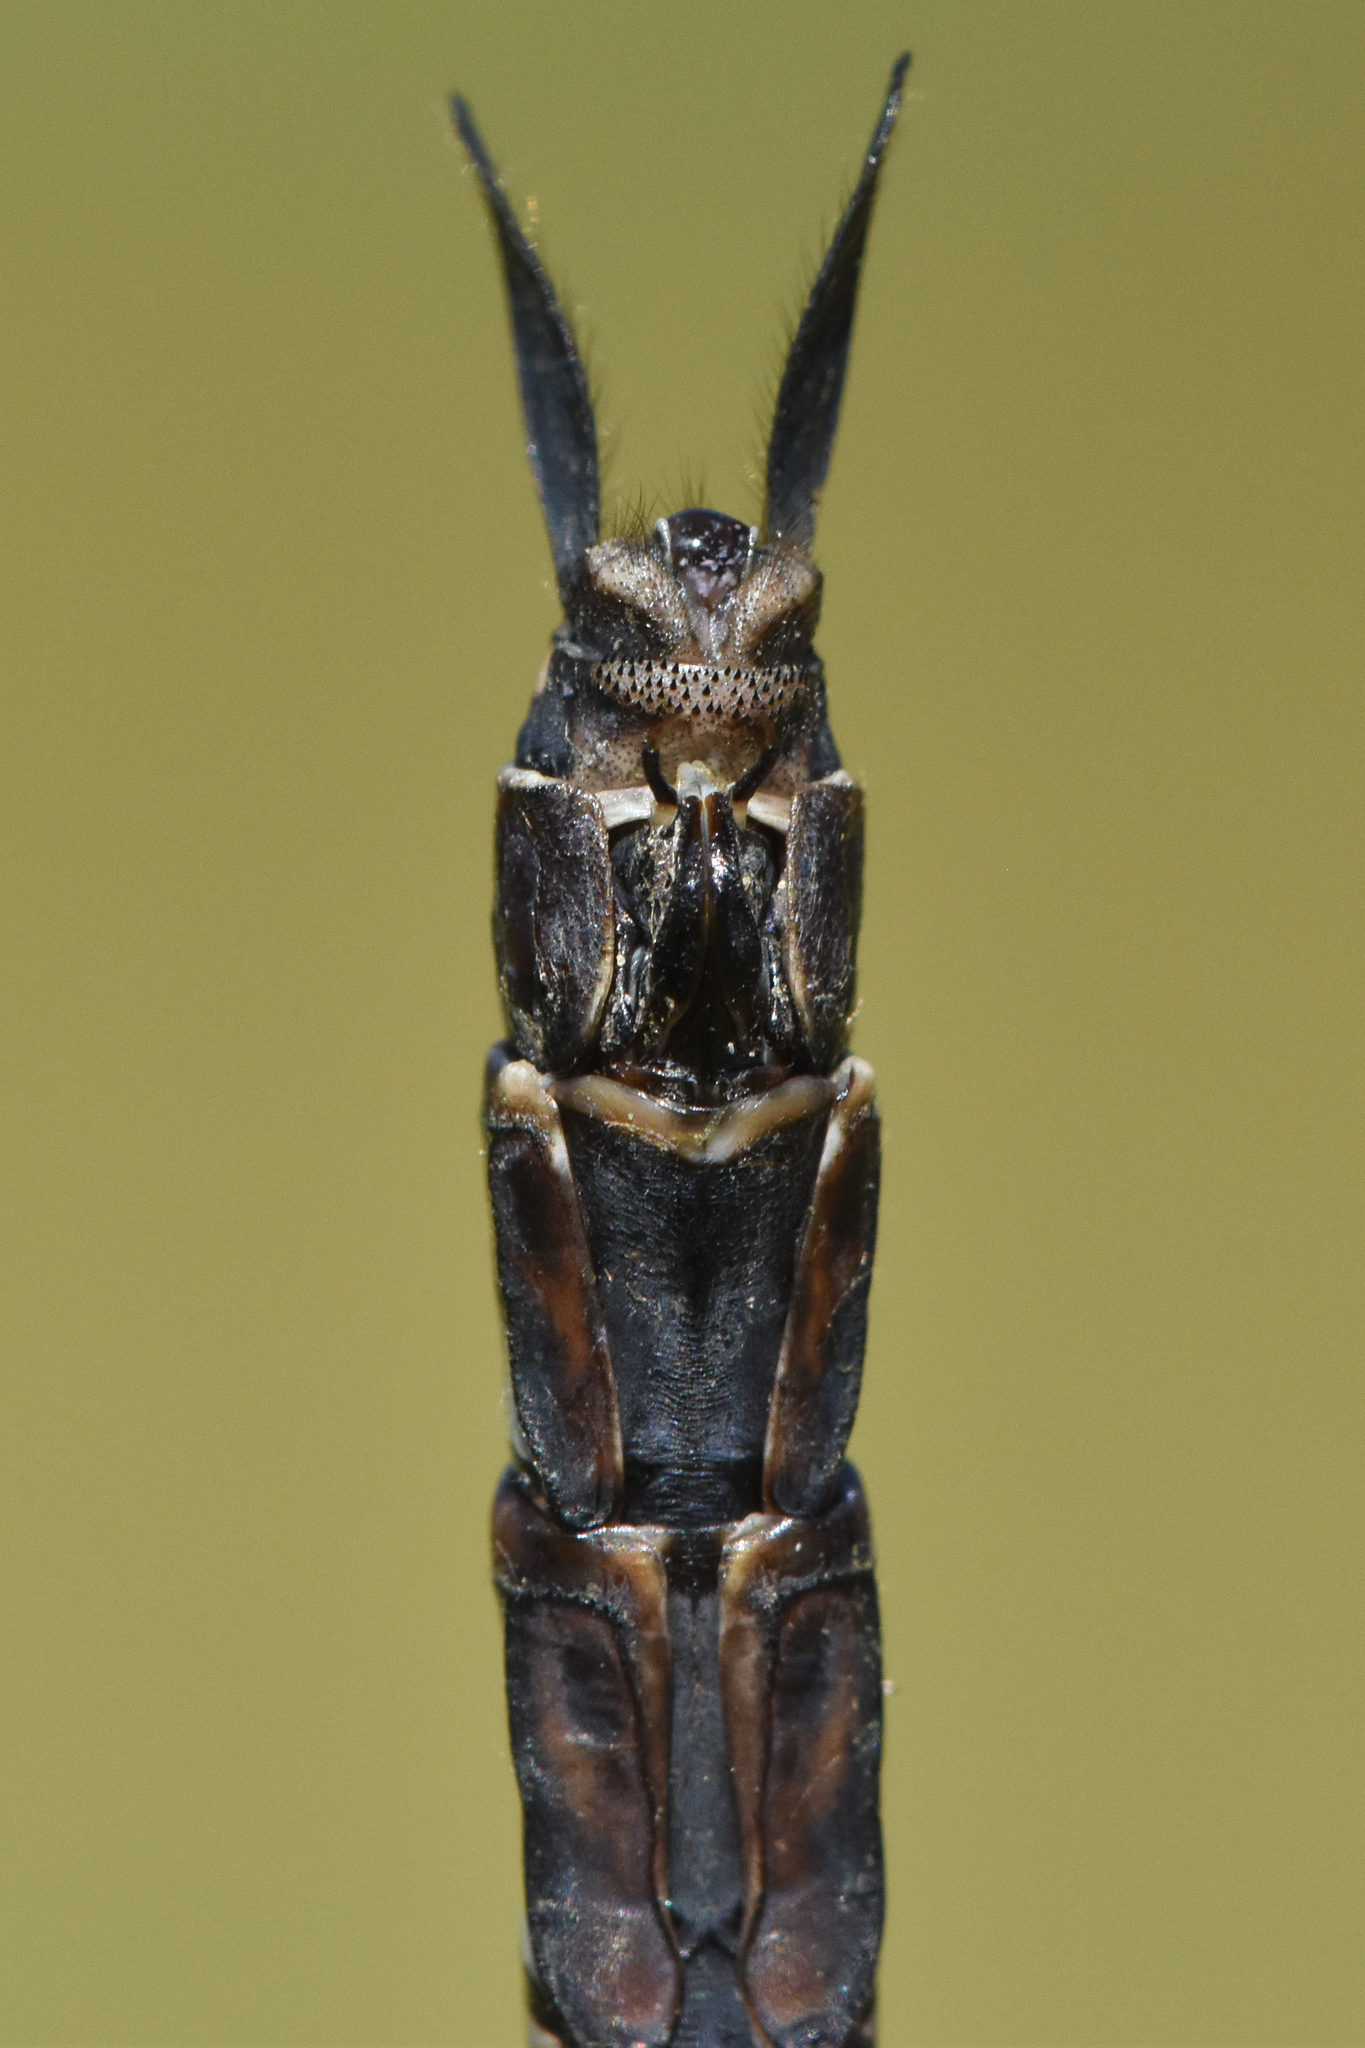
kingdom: Animalia
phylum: Arthropoda
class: Insecta
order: Odonata
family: Aeshnidae
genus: Aeshna
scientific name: Aeshna interrupta
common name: Variable darner
